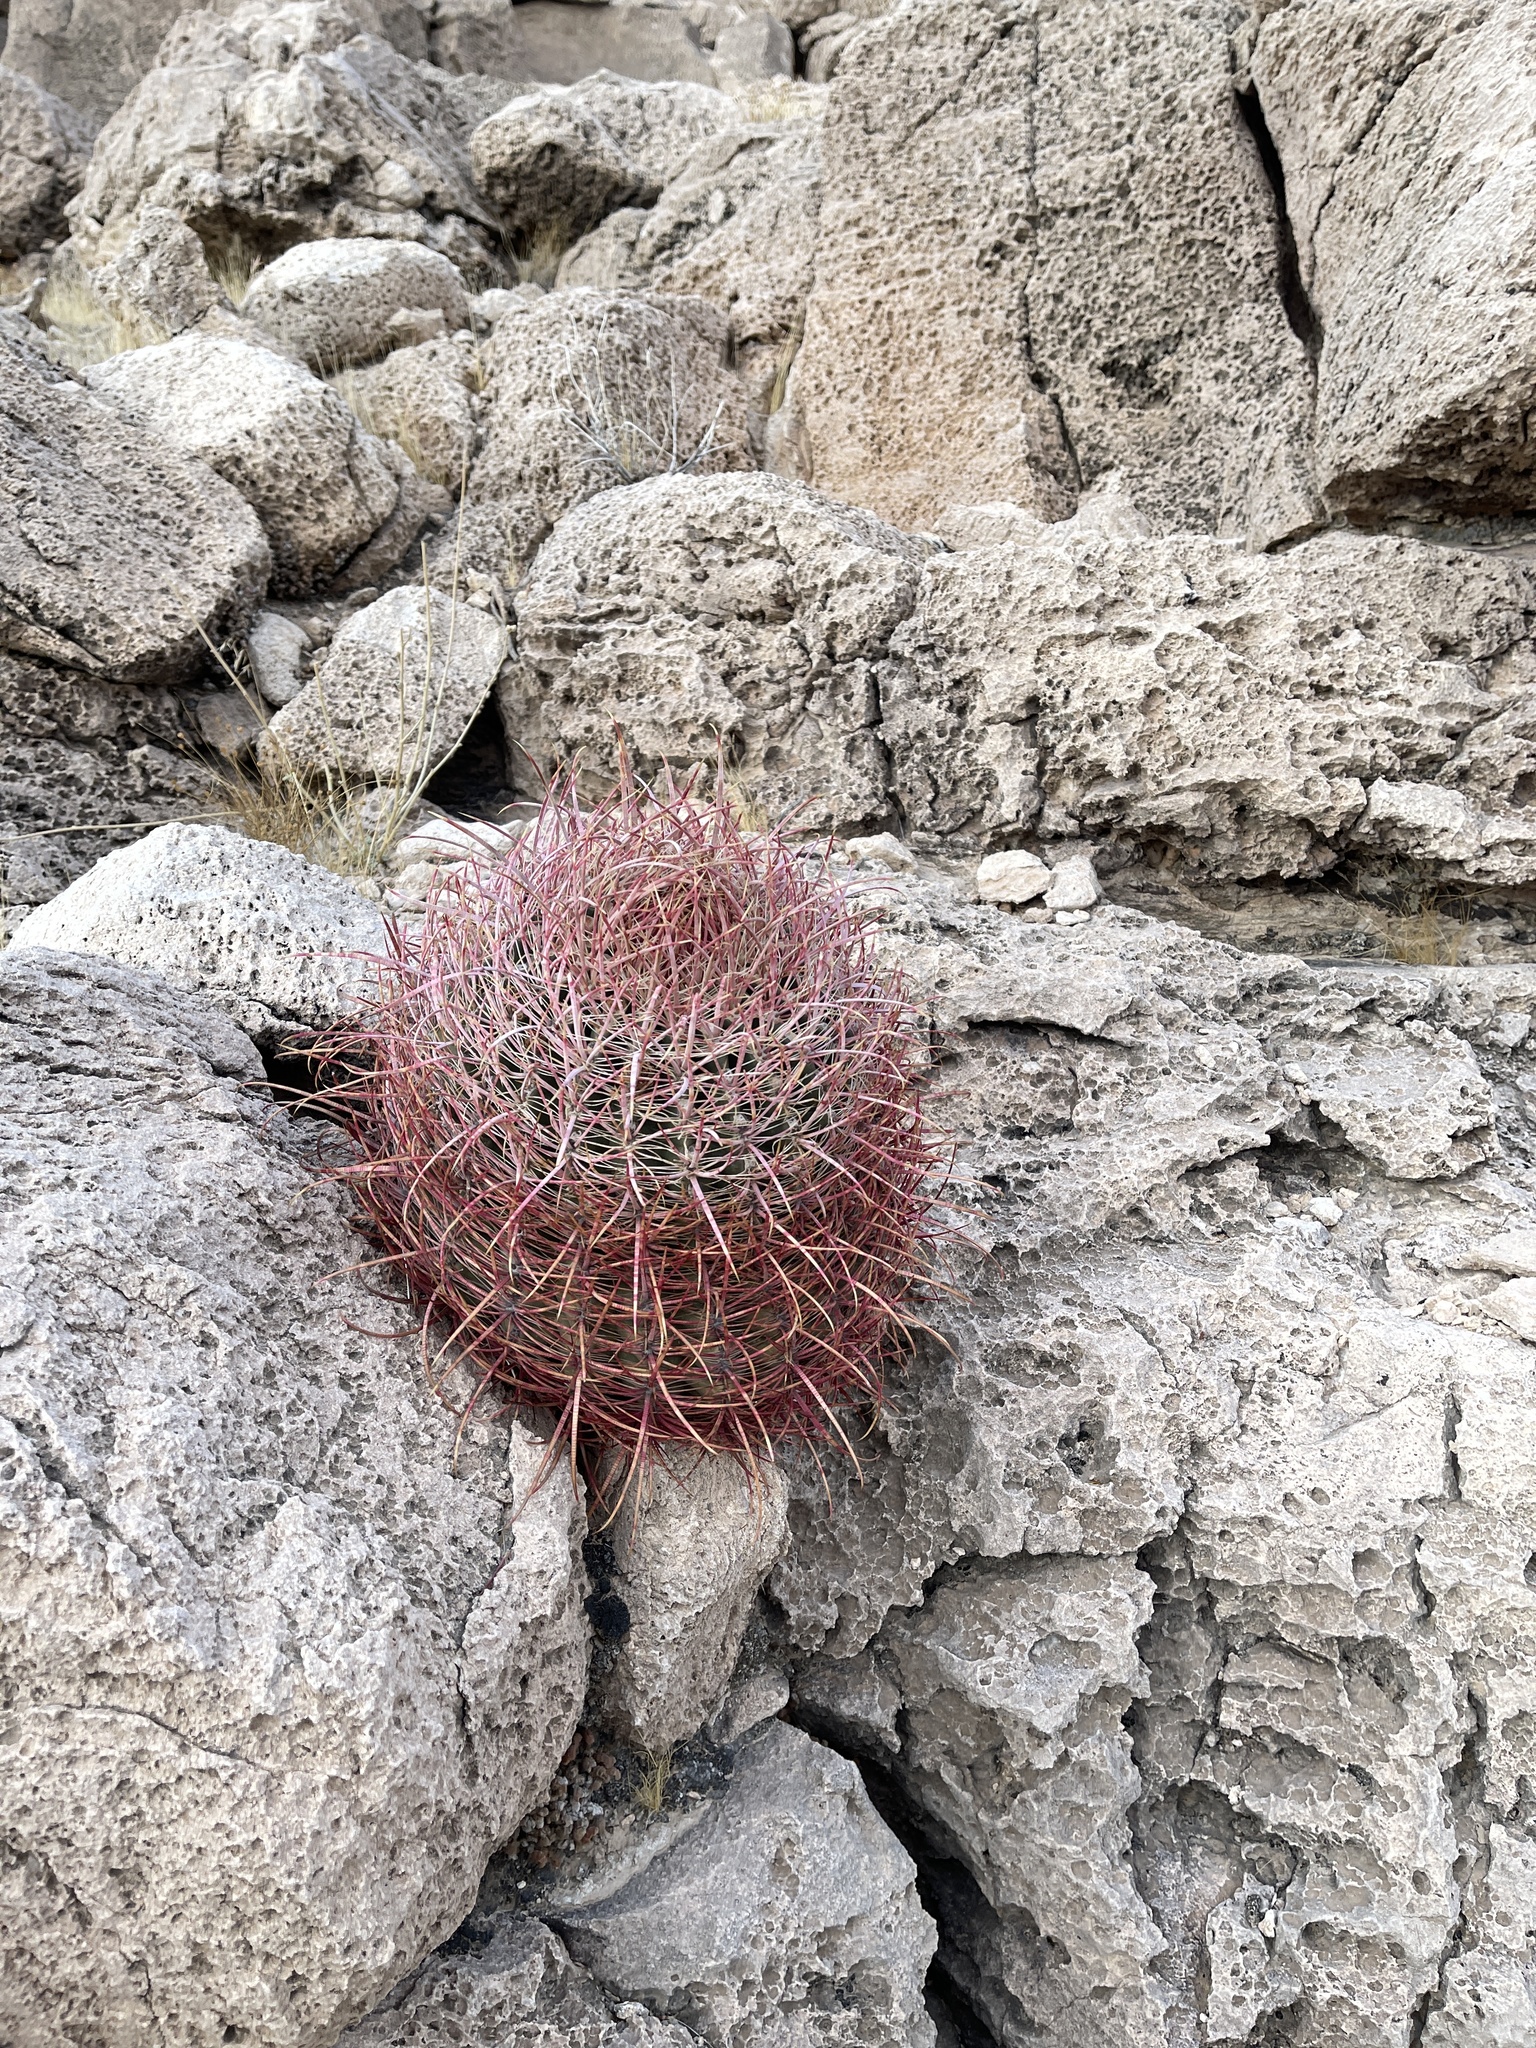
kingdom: Plantae
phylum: Tracheophyta
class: Magnoliopsida
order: Caryophyllales
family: Cactaceae
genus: Ferocactus
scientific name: Ferocactus cylindraceus
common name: California barrel cactus
